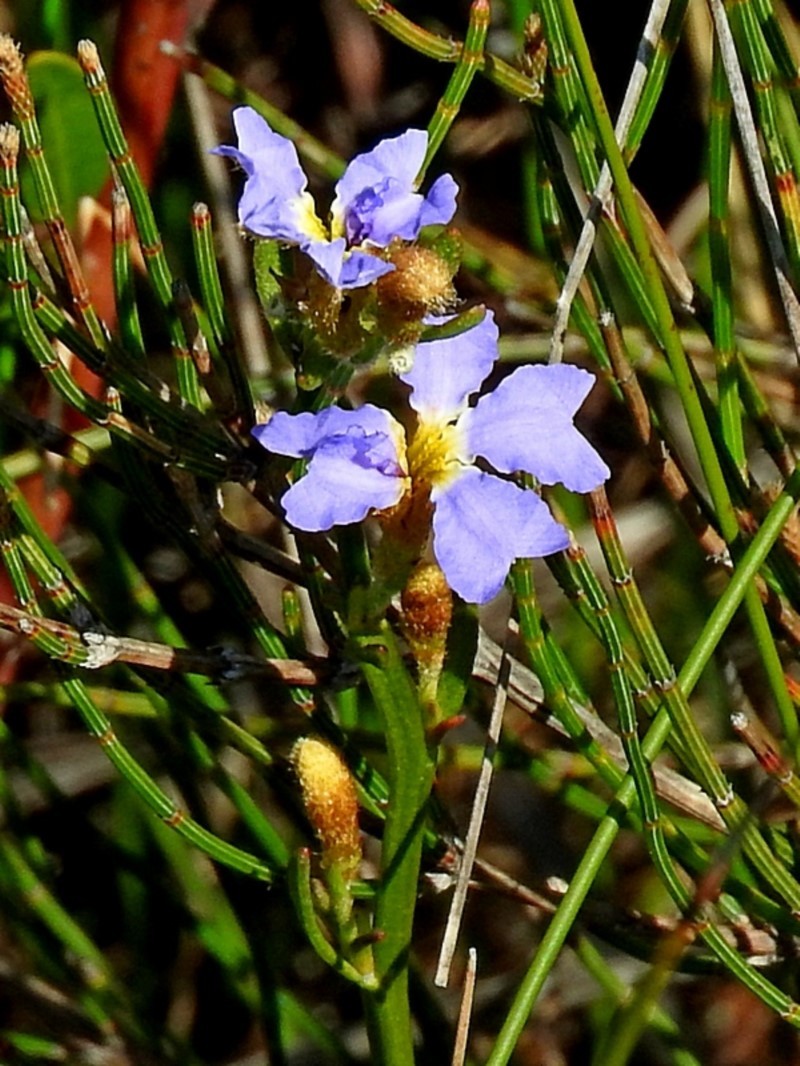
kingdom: Plantae
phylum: Tracheophyta
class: Magnoliopsida
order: Asterales
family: Goodeniaceae
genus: Dampiera
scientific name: Dampiera stricta
